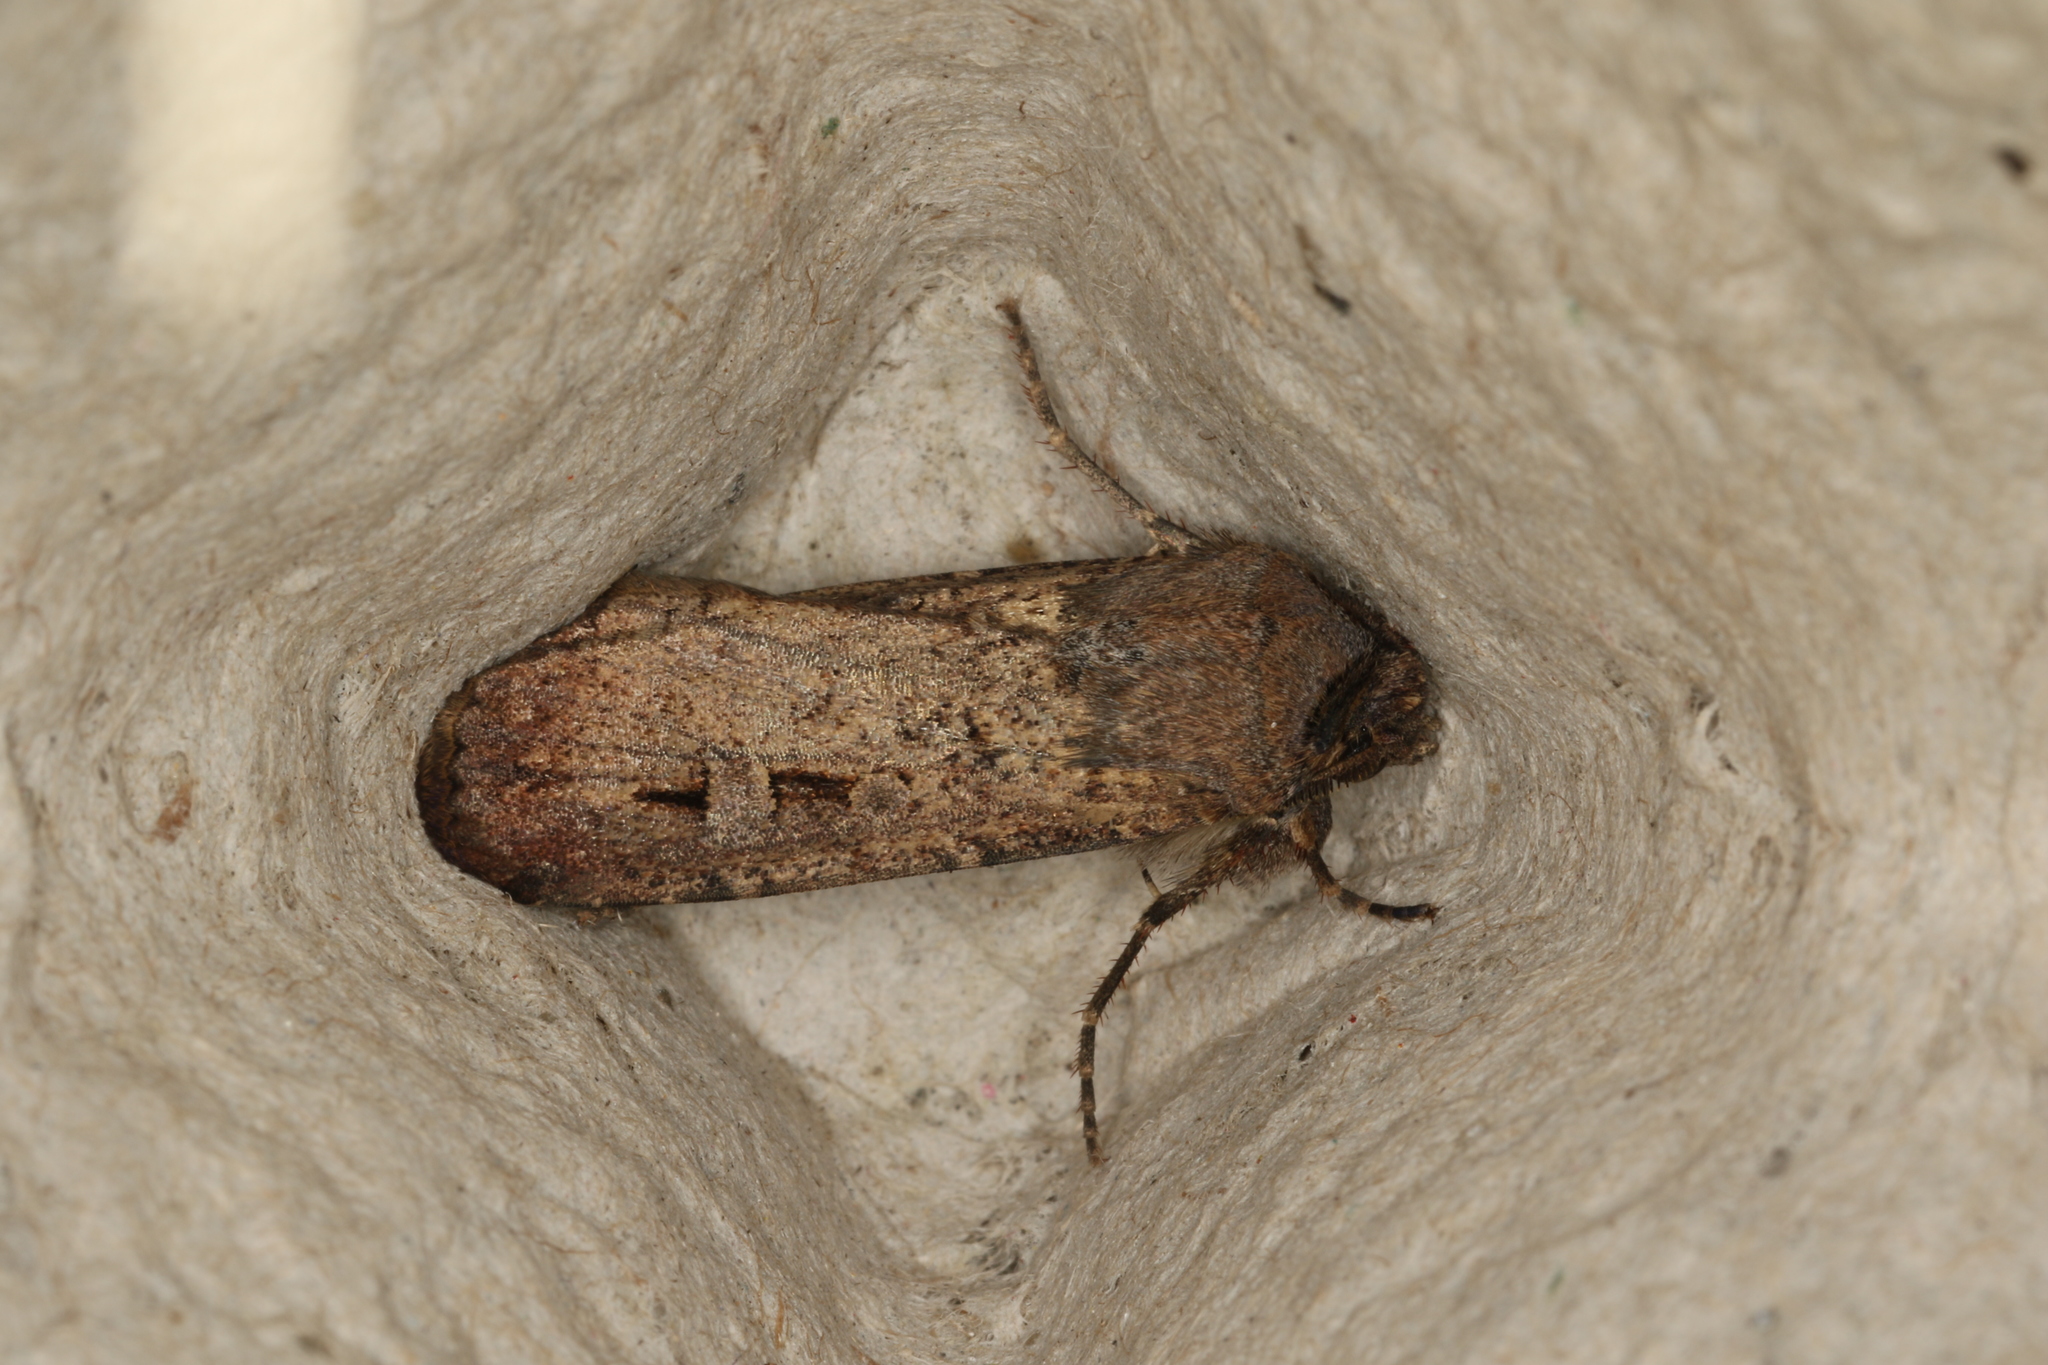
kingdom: Animalia
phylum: Arthropoda
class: Insecta
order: Lepidoptera
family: Noctuidae
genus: Agrotis
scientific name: Agrotis infusa
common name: Bogong moth
